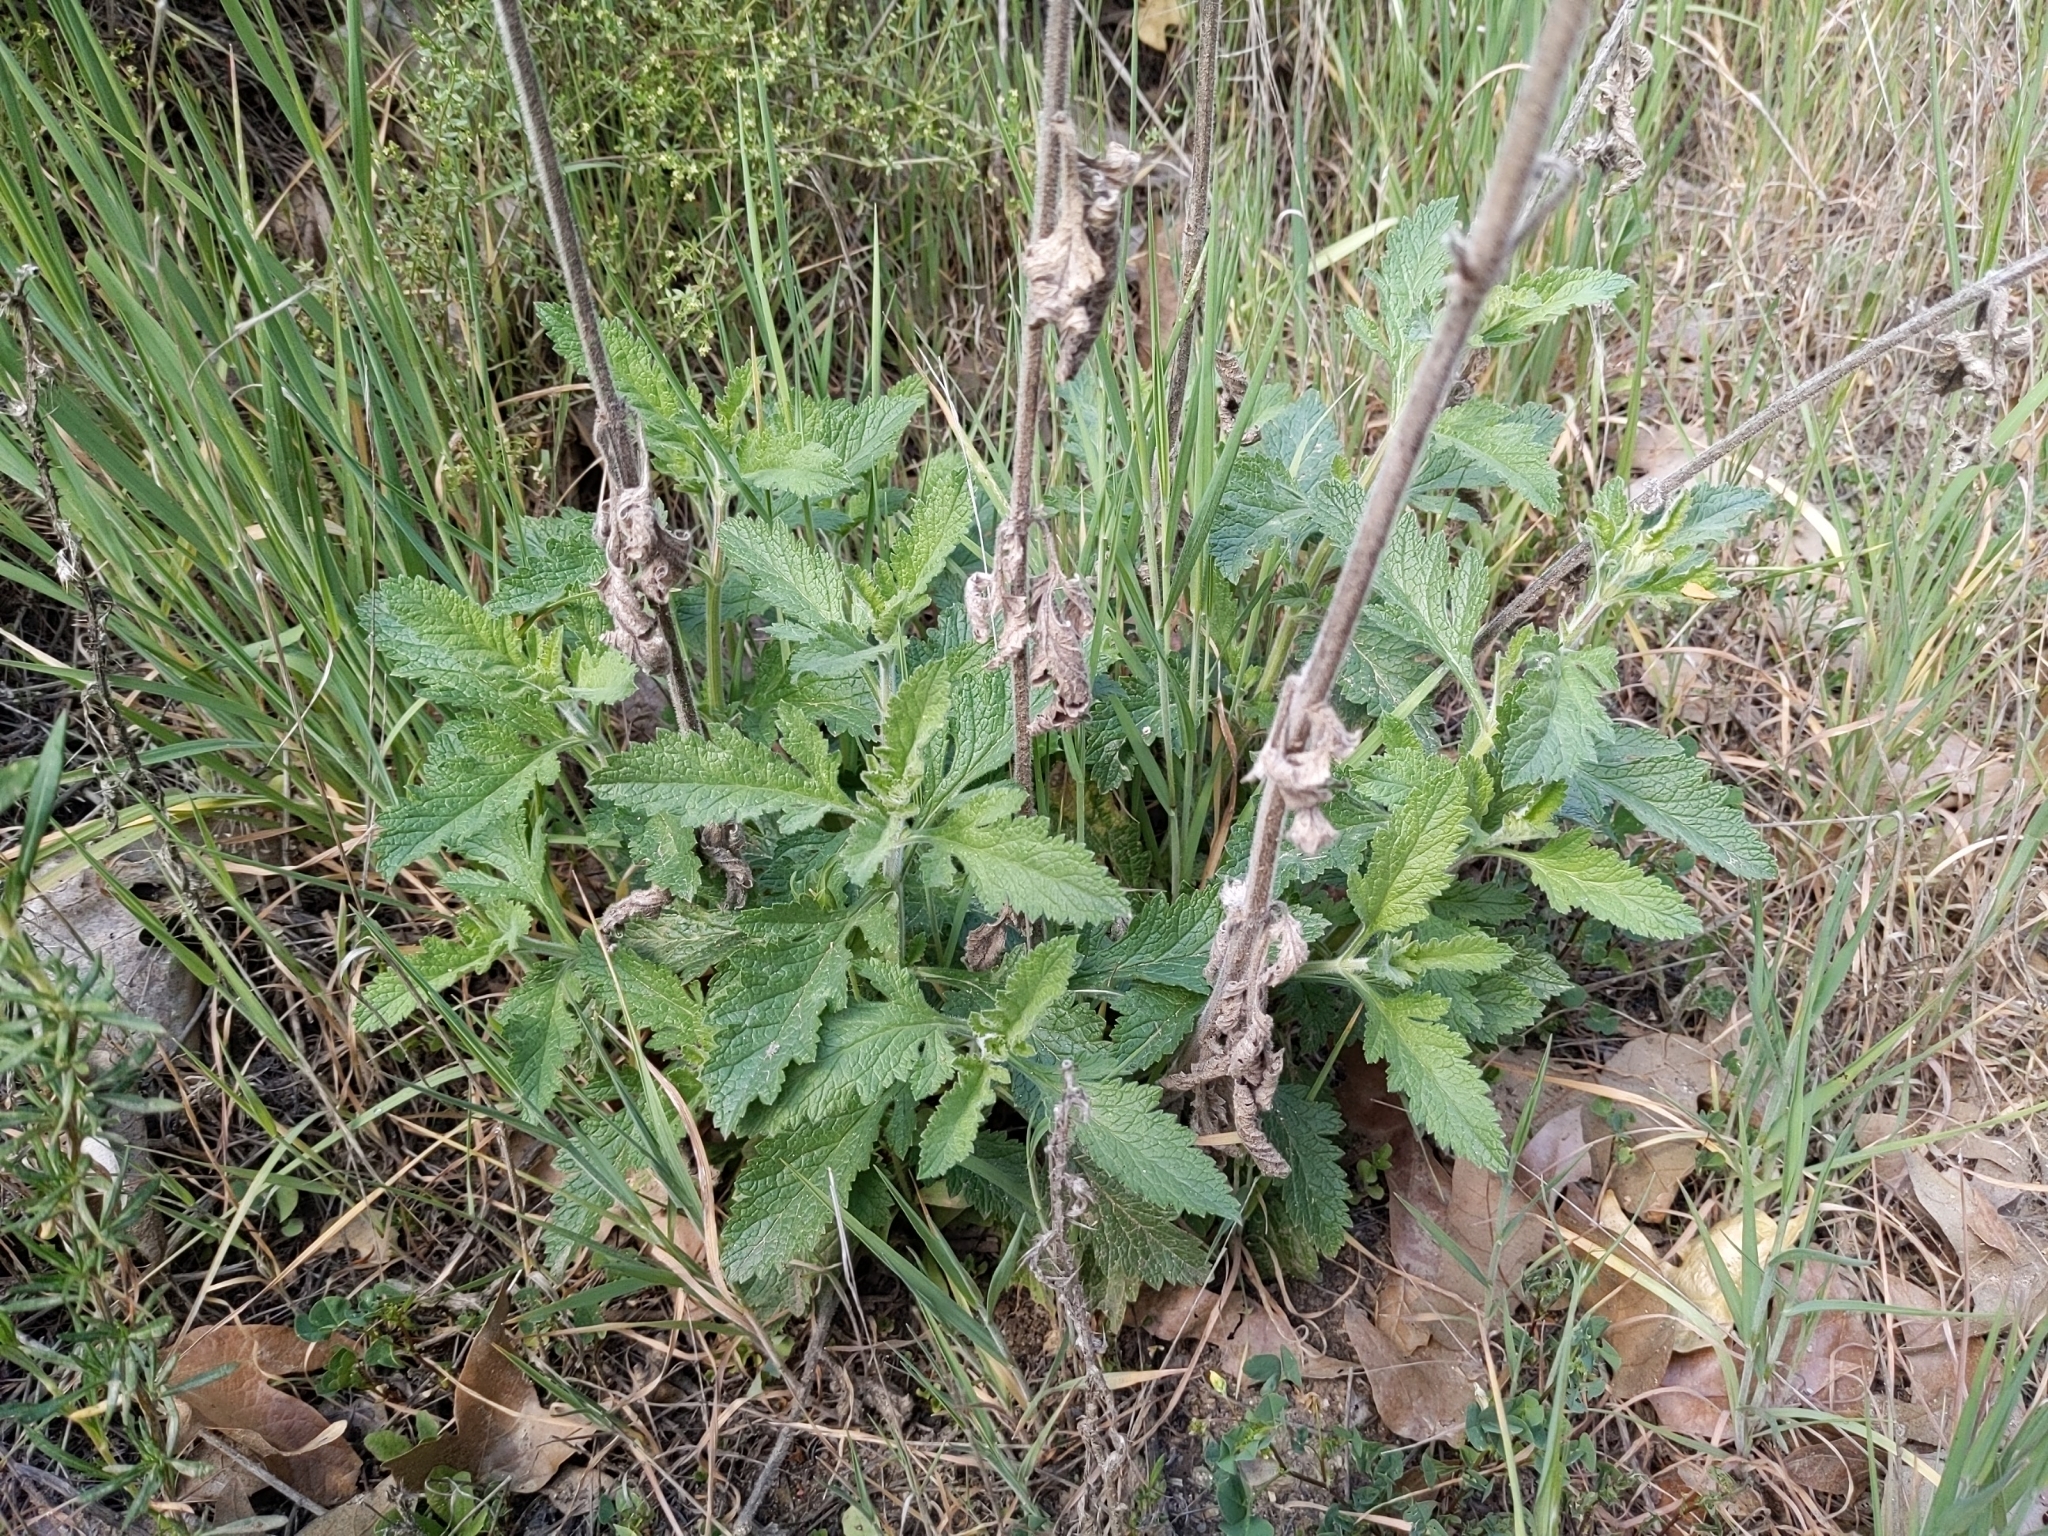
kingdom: Plantae
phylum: Tracheophyta
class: Magnoliopsida
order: Lamiales
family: Verbenaceae
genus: Verbena
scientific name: Verbena lasiostachys
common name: Vervain
